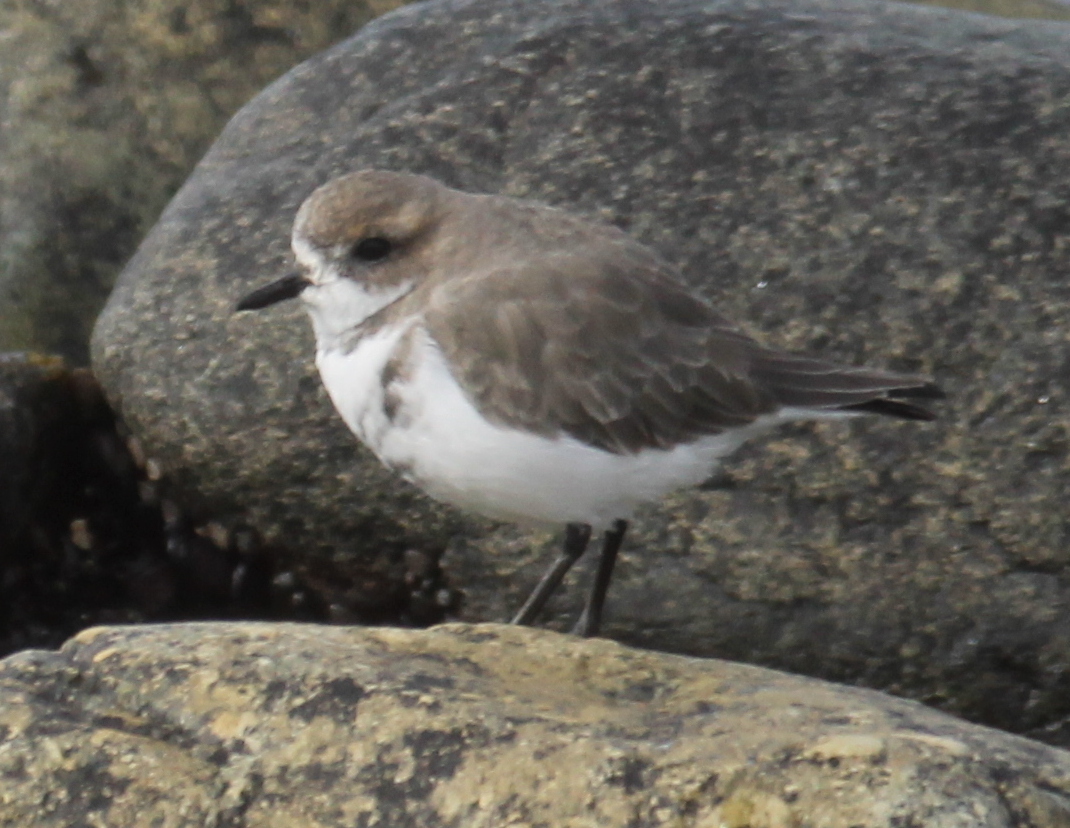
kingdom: Animalia
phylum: Chordata
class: Aves
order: Charadriiformes
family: Charadriidae
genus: Anarhynchus
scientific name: Anarhynchus
